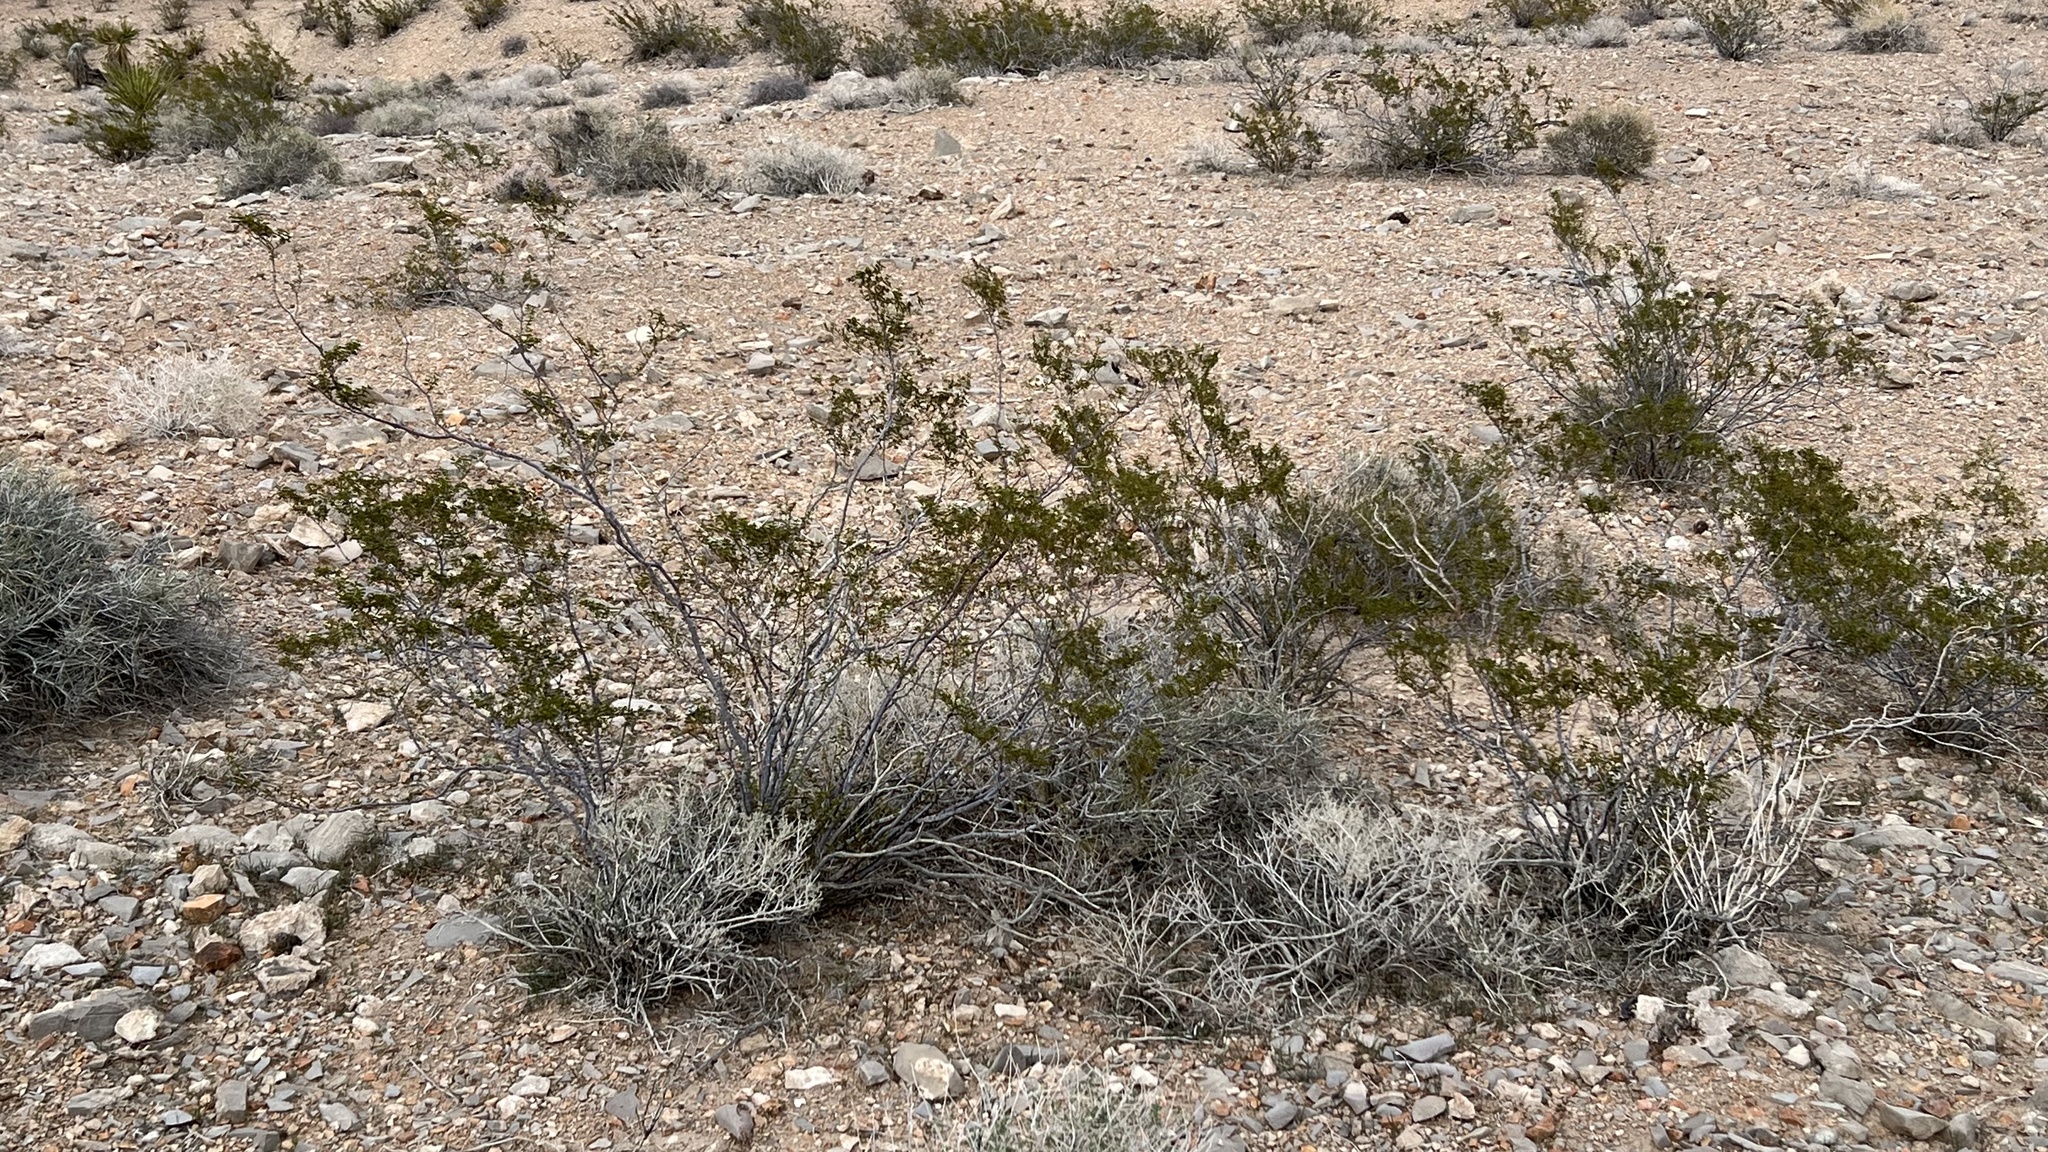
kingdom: Plantae
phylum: Tracheophyta
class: Magnoliopsida
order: Zygophyllales
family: Zygophyllaceae
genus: Larrea
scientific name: Larrea tridentata
